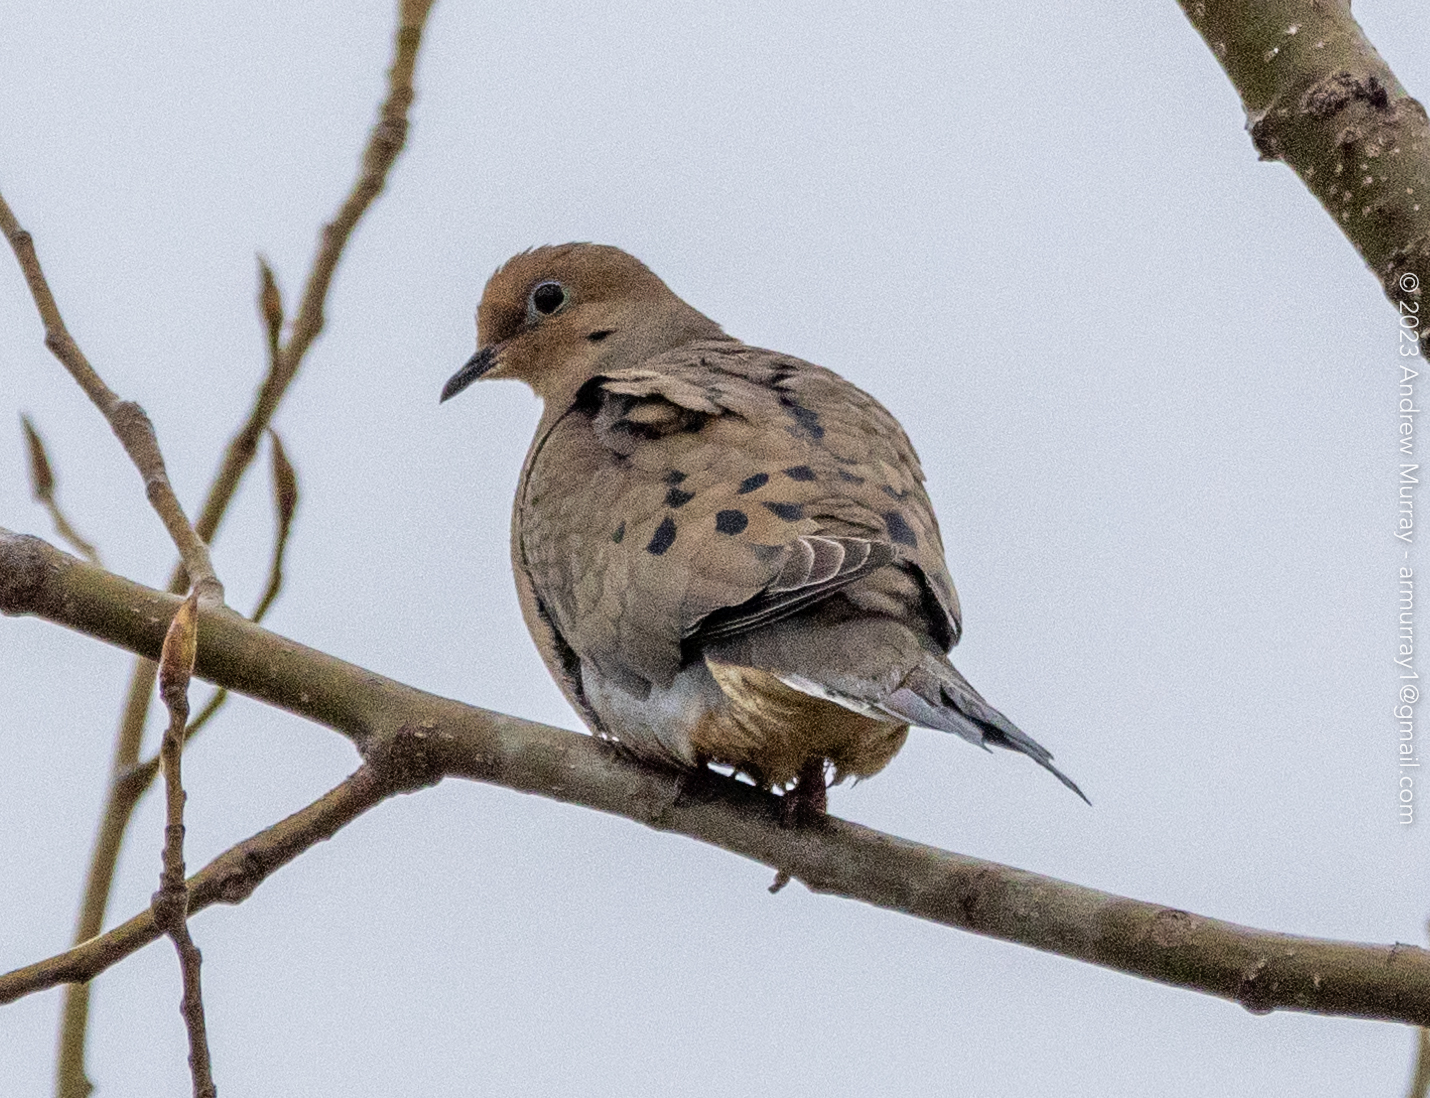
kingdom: Animalia
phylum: Chordata
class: Aves
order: Columbiformes
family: Columbidae
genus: Zenaida
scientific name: Zenaida macroura
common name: Mourning dove
